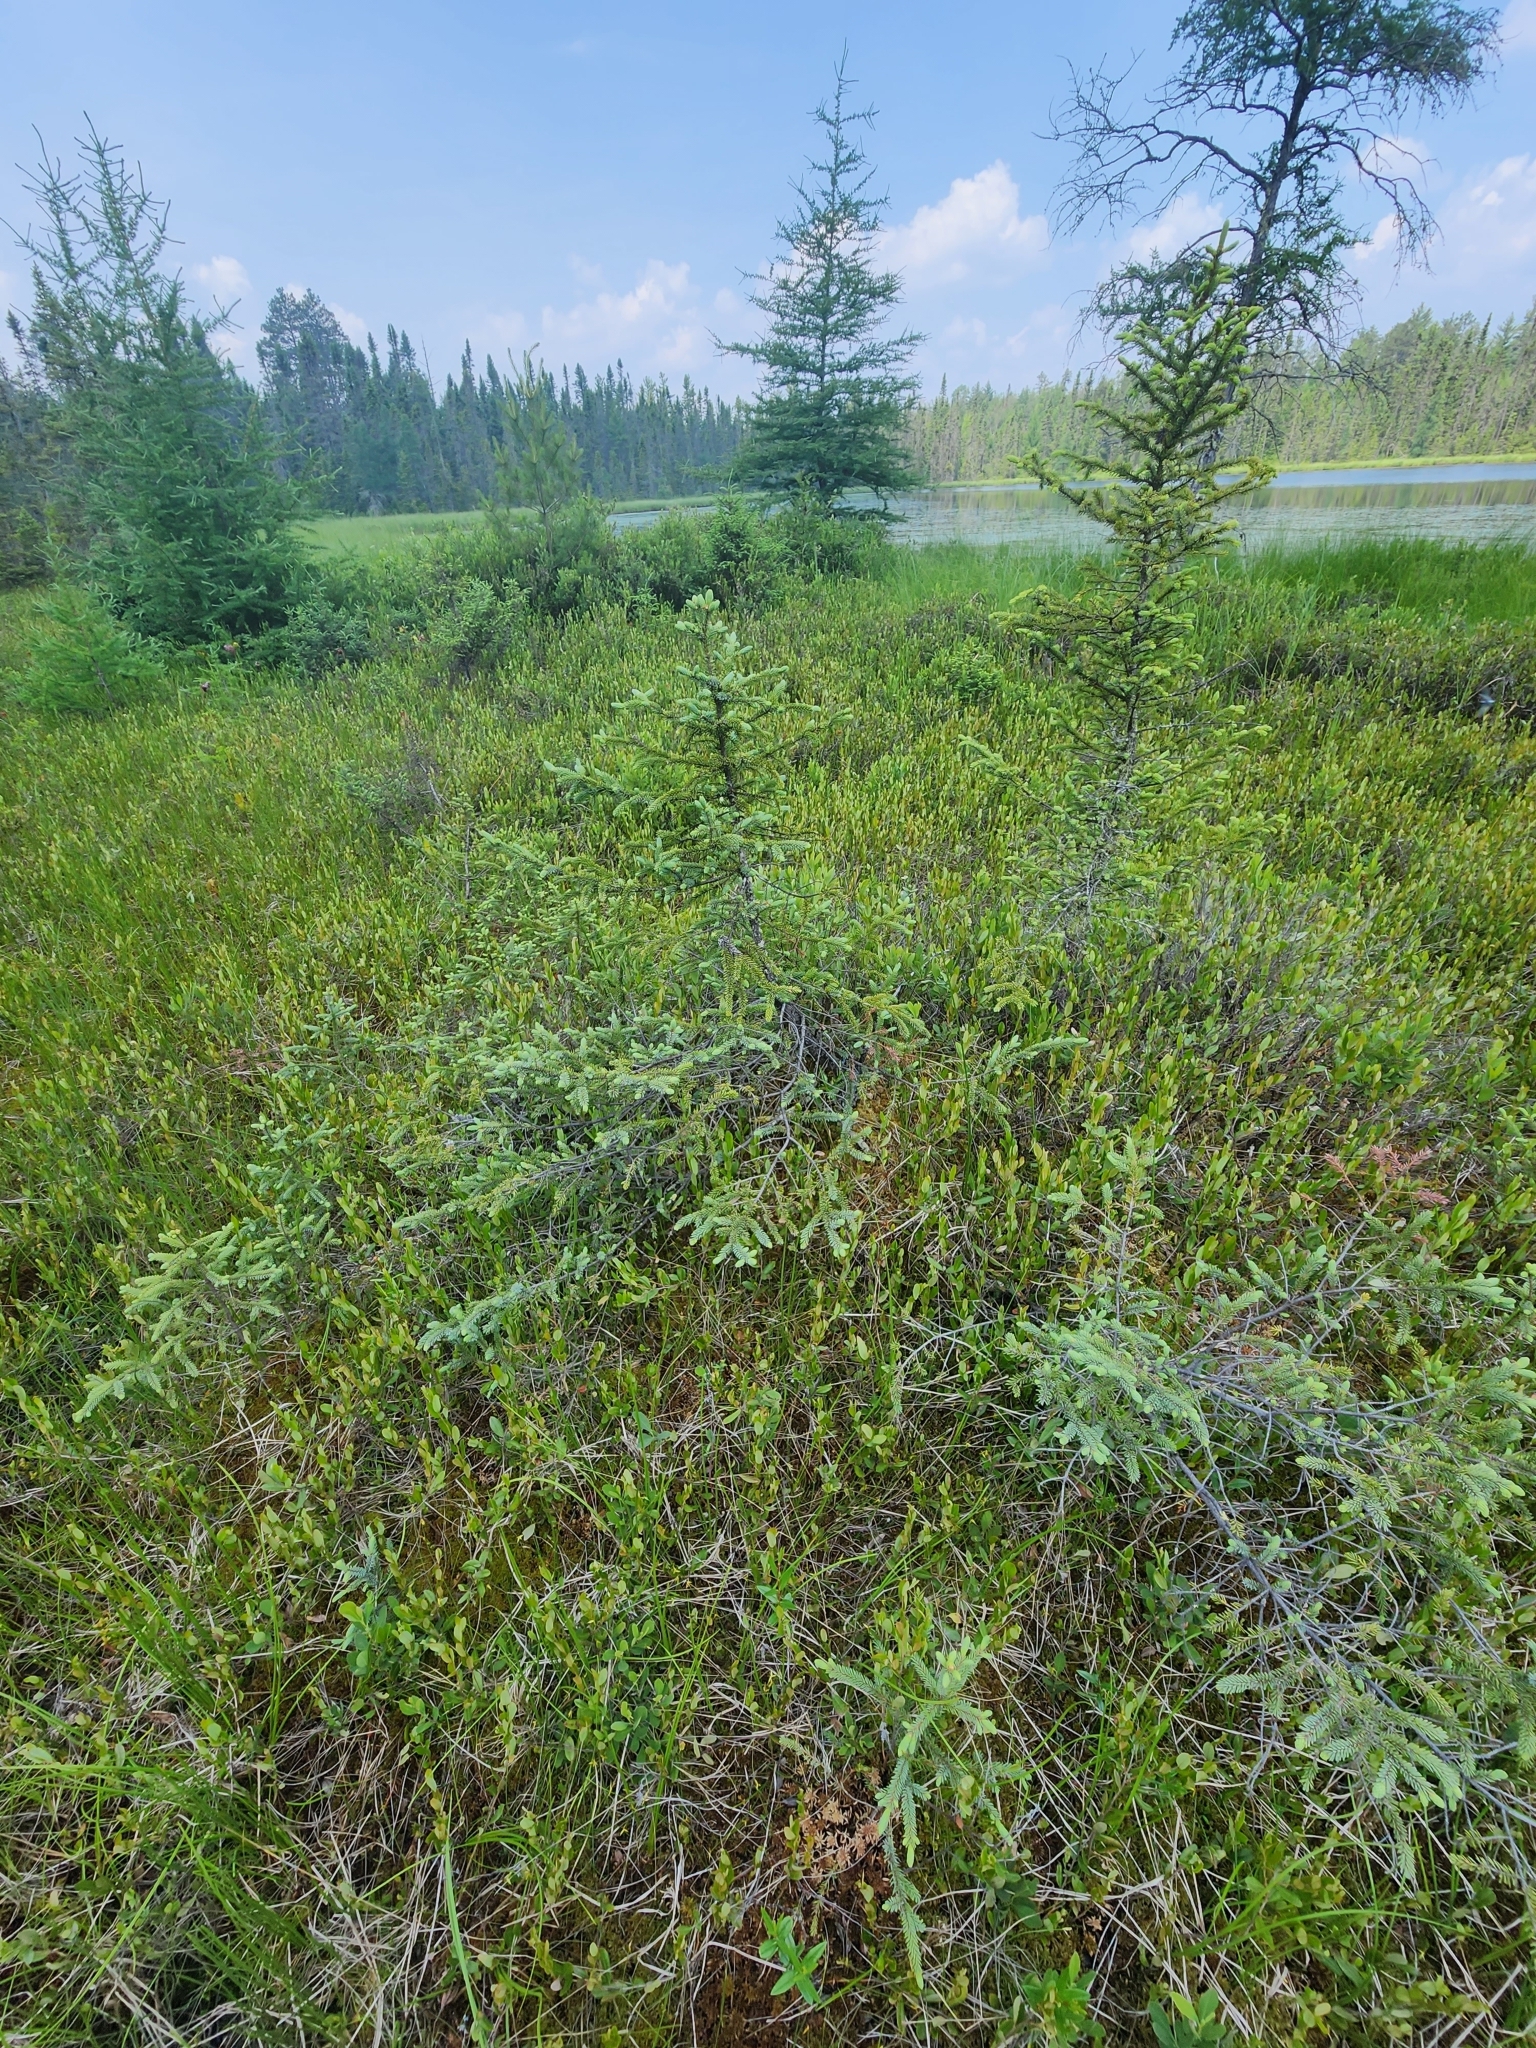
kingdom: Plantae
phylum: Tracheophyta
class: Pinopsida
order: Pinales
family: Pinaceae
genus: Picea
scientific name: Picea mariana
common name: Black spruce
